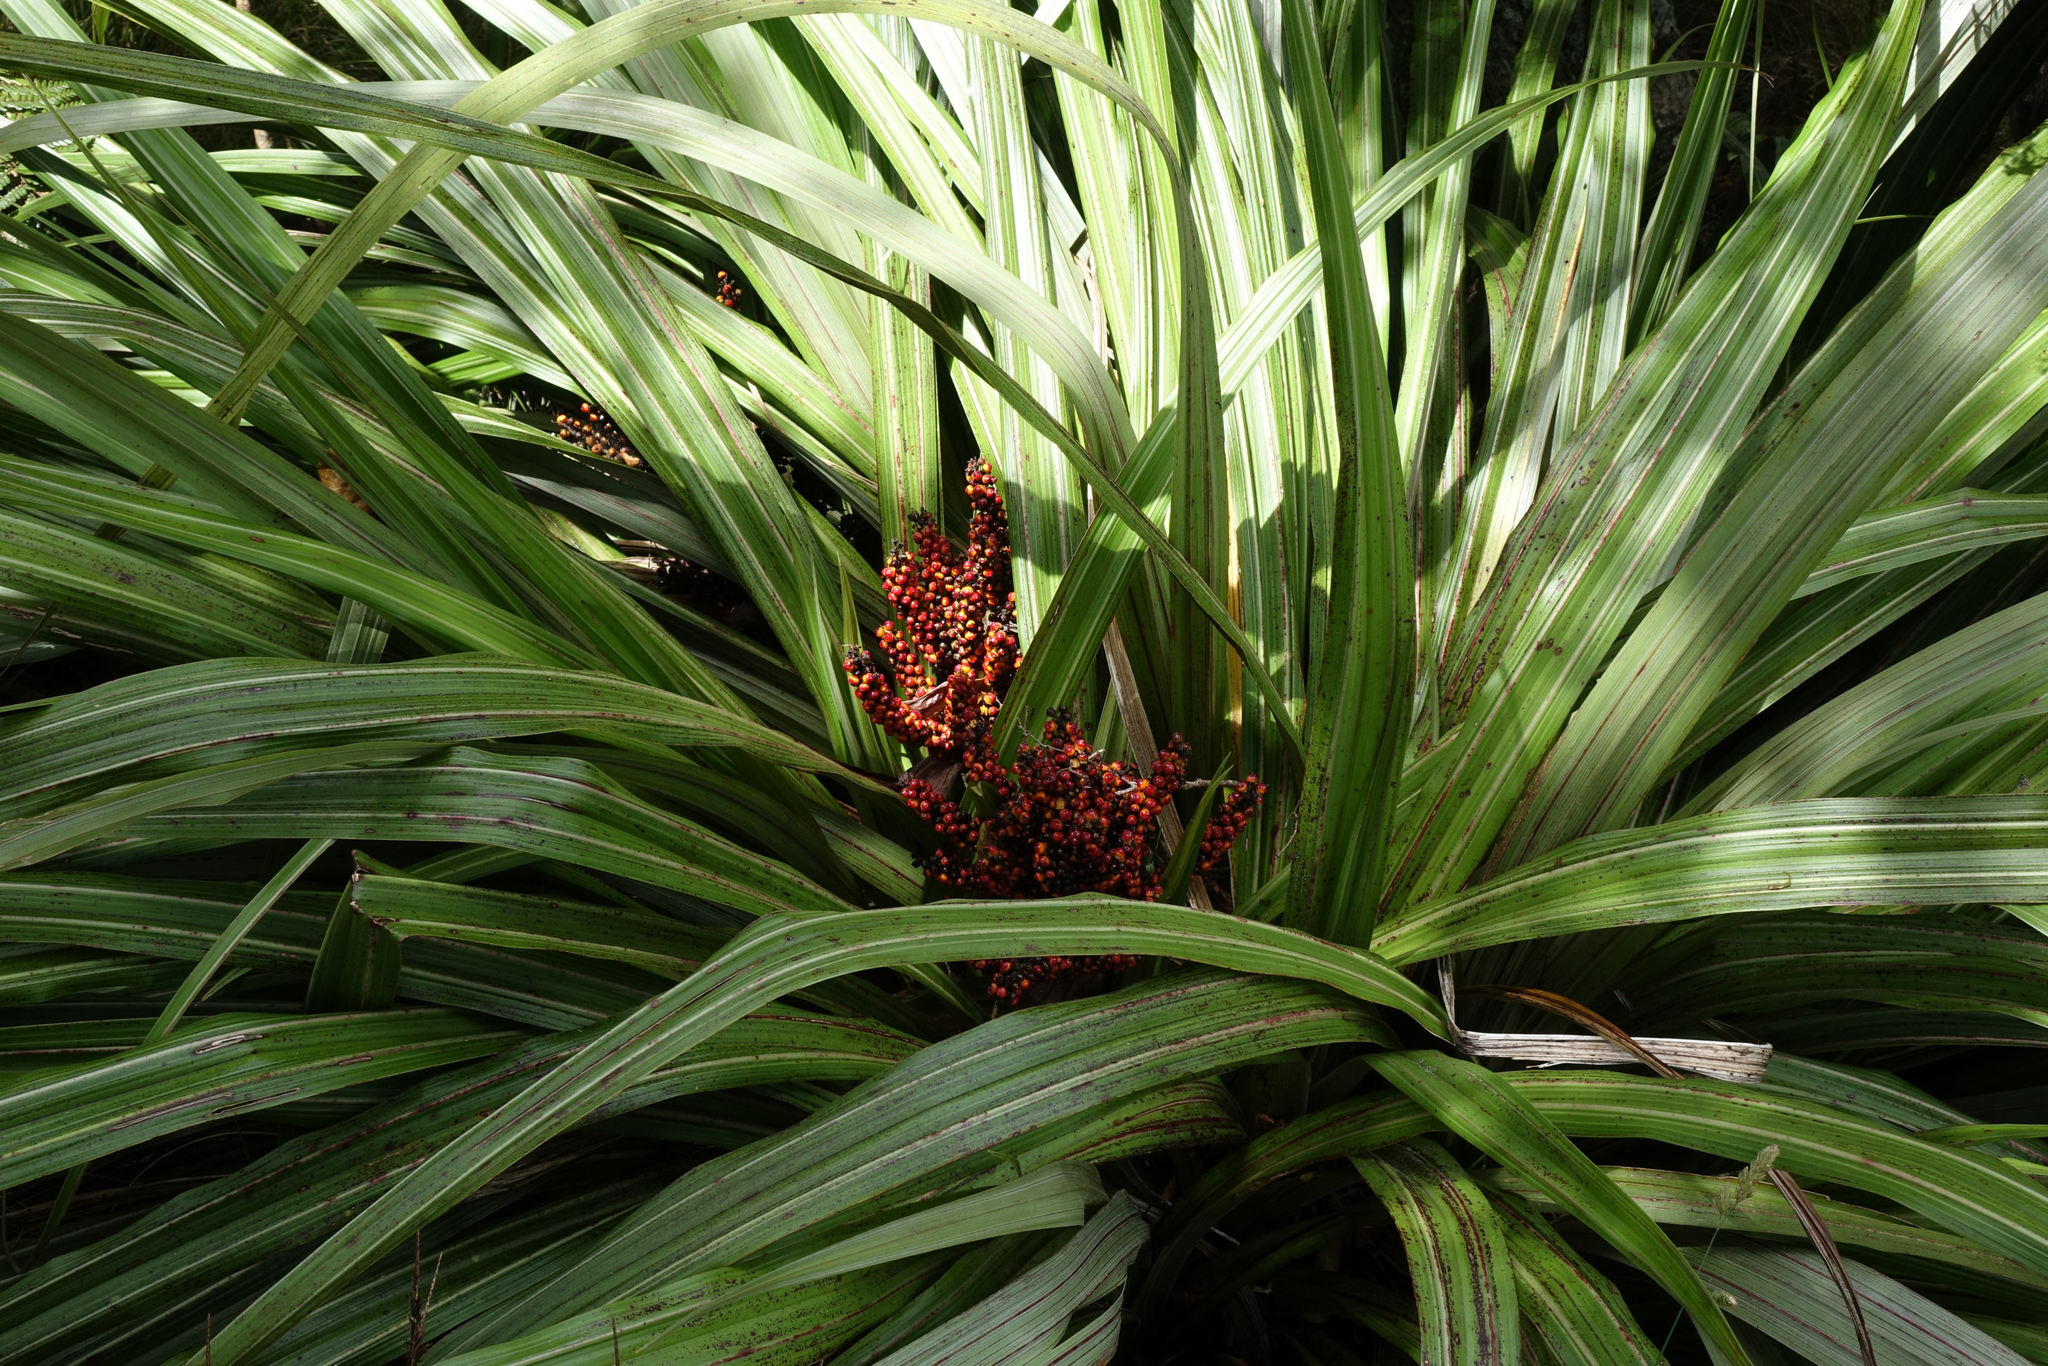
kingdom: Plantae
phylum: Tracheophyta
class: Liliopsida
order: Asparagales
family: Asteliaceae
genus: Astelia
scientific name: Astelia fragrans
